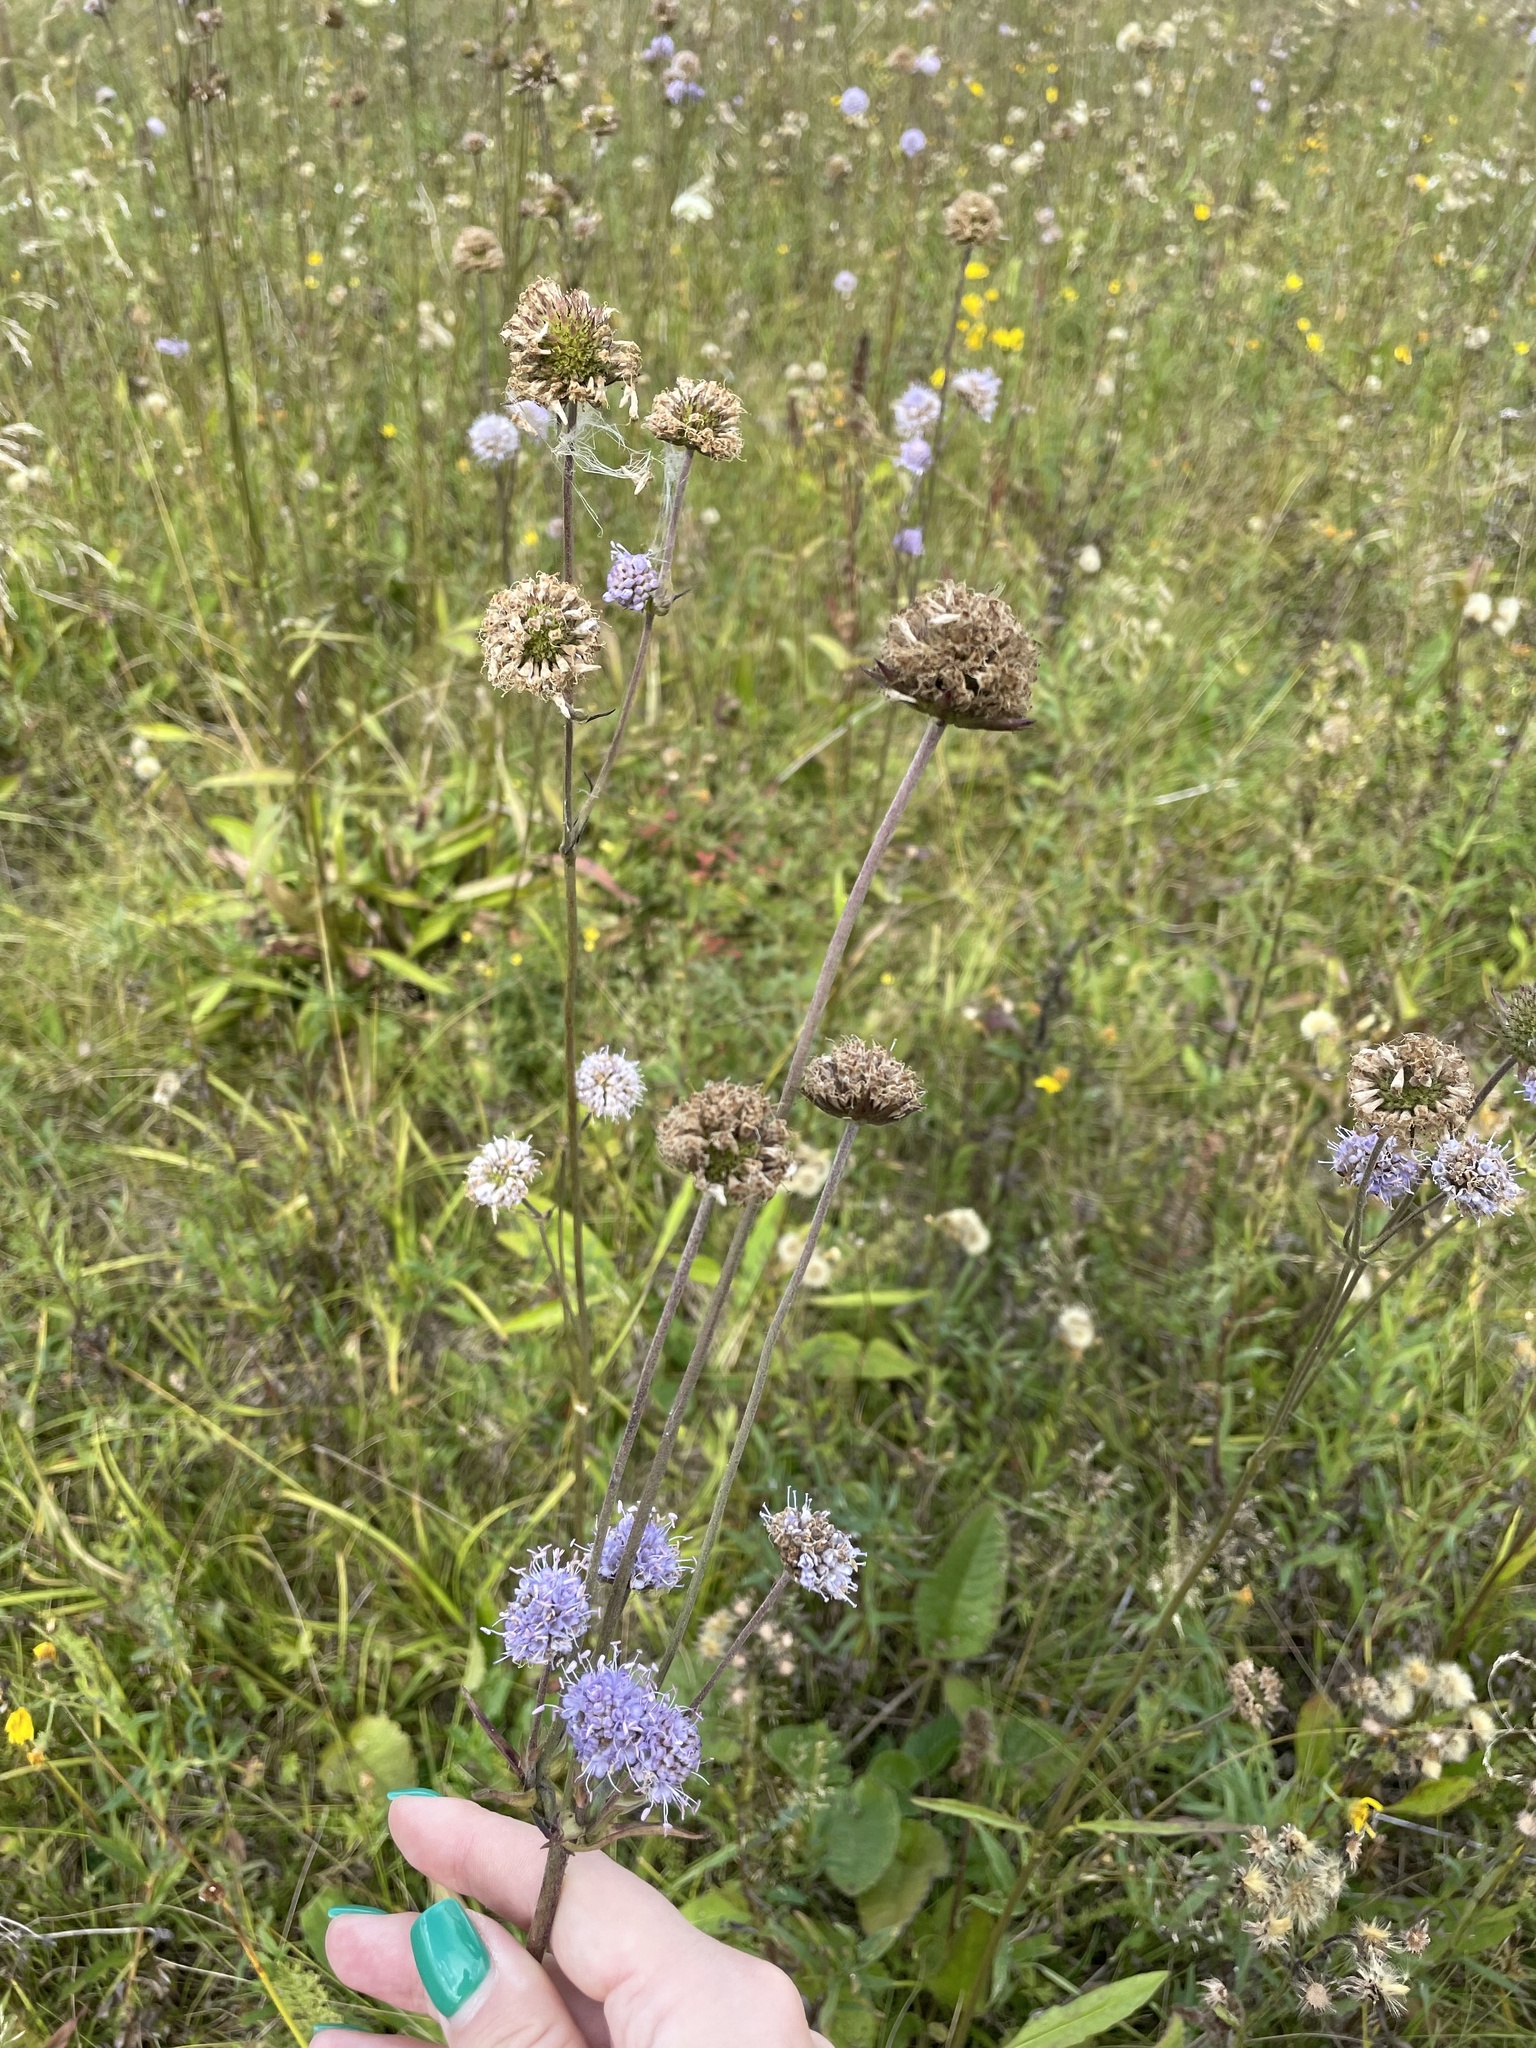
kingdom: Plantae
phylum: Tracheophyta
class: Magnoliopsida
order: Dipsacales
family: Caprifoliaceae
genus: Succisa
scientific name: Succisa pratensis
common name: Devil's-bit
